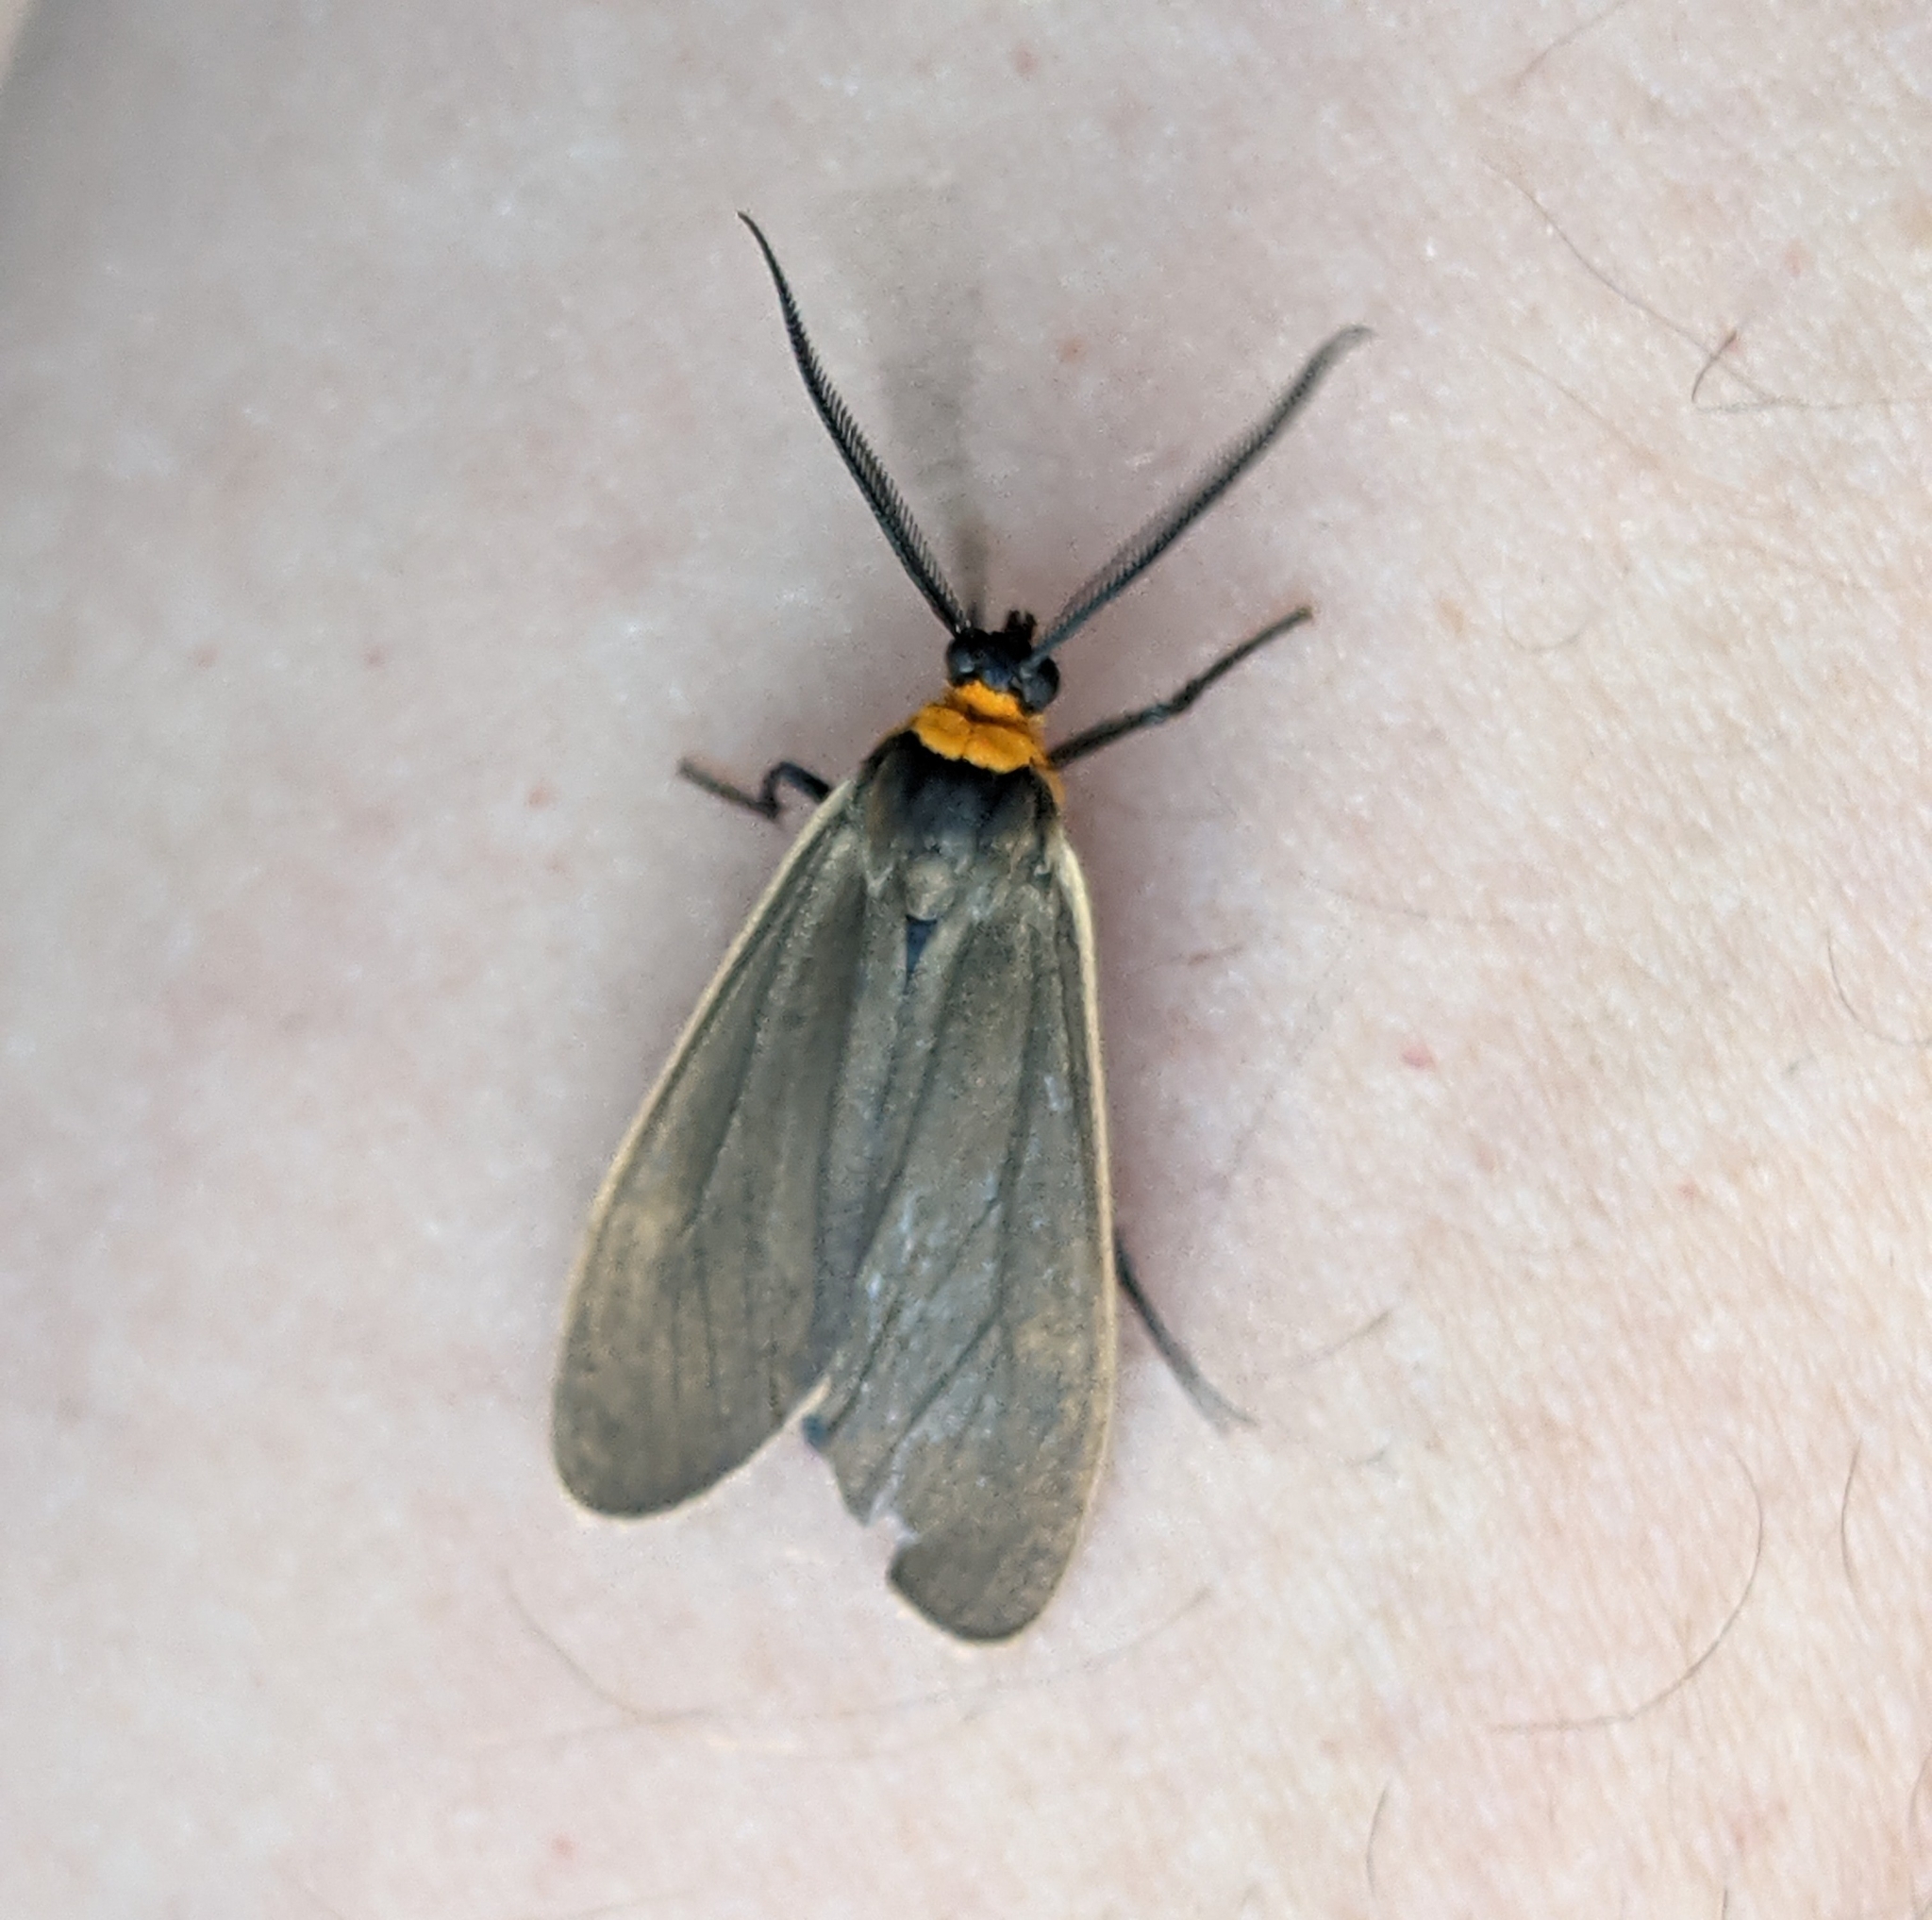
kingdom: Animalia
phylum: Arthropoda
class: Insecta
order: Lepidoptera
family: Erebidae
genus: Cisseps
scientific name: Cisseps fulvicollis
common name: Yellow-collared scape moth
